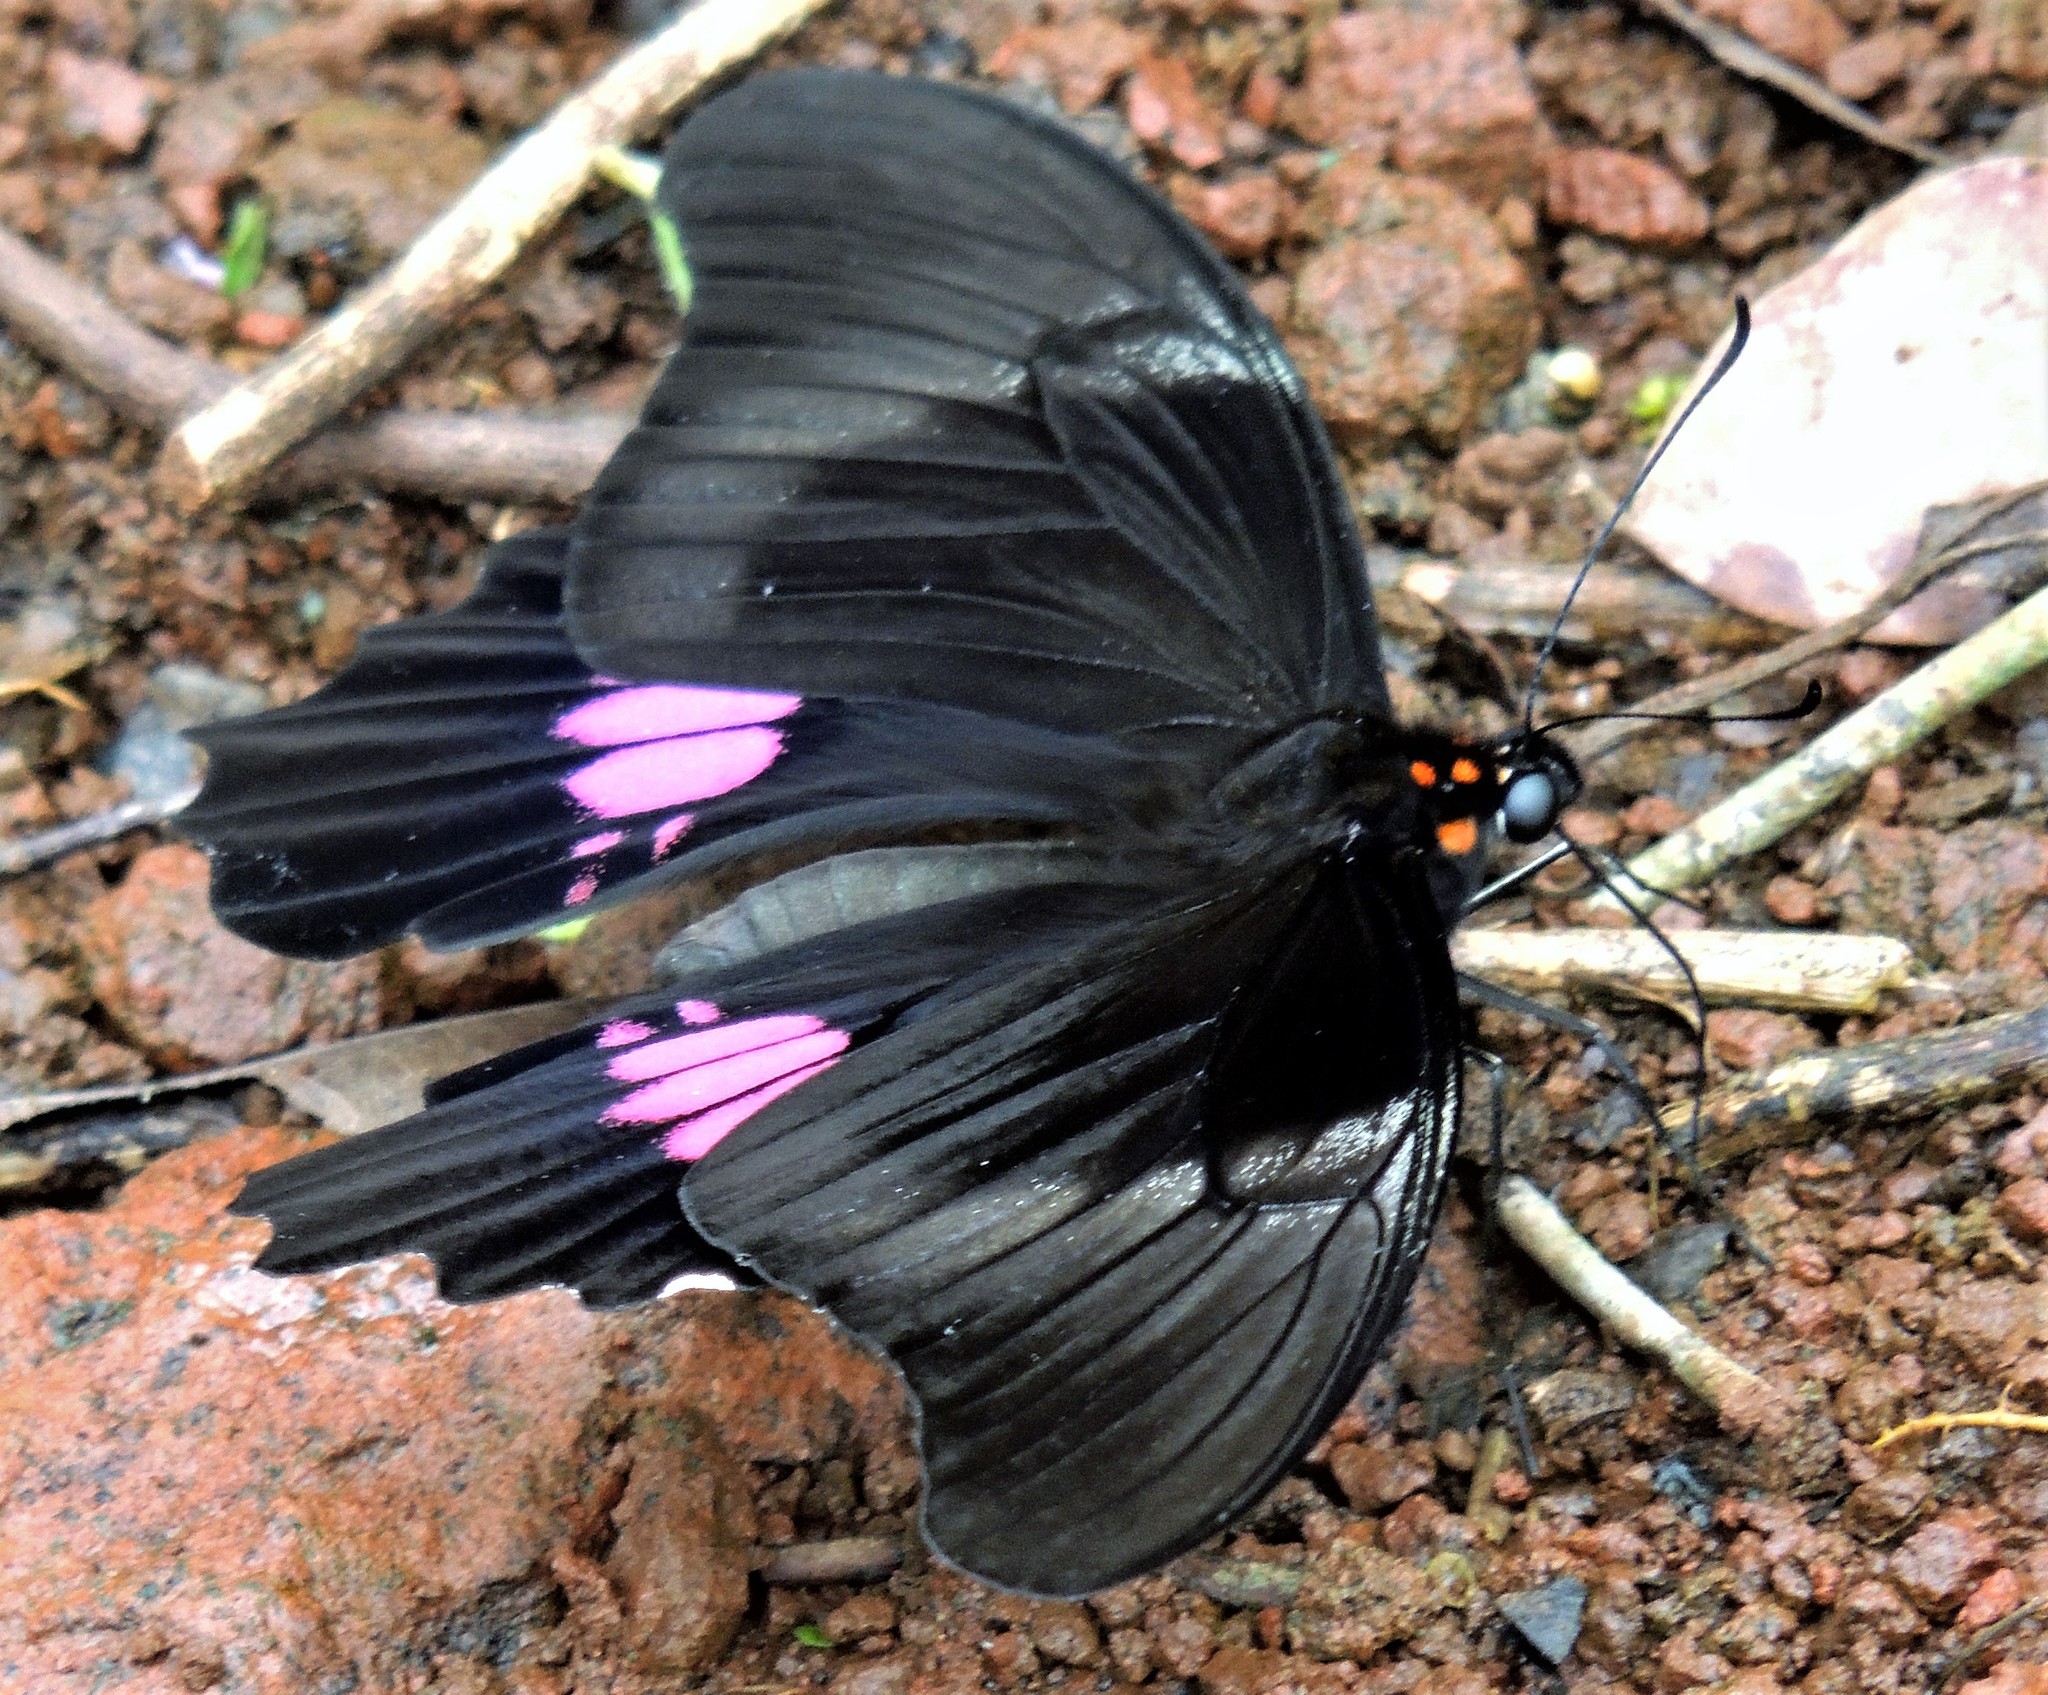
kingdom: Animalia
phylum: Arthropoda
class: Insecta
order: Lepidoptera
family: Papilionidae
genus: Papilio
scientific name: Papilio anchisiades
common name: Idaes swallowtail
